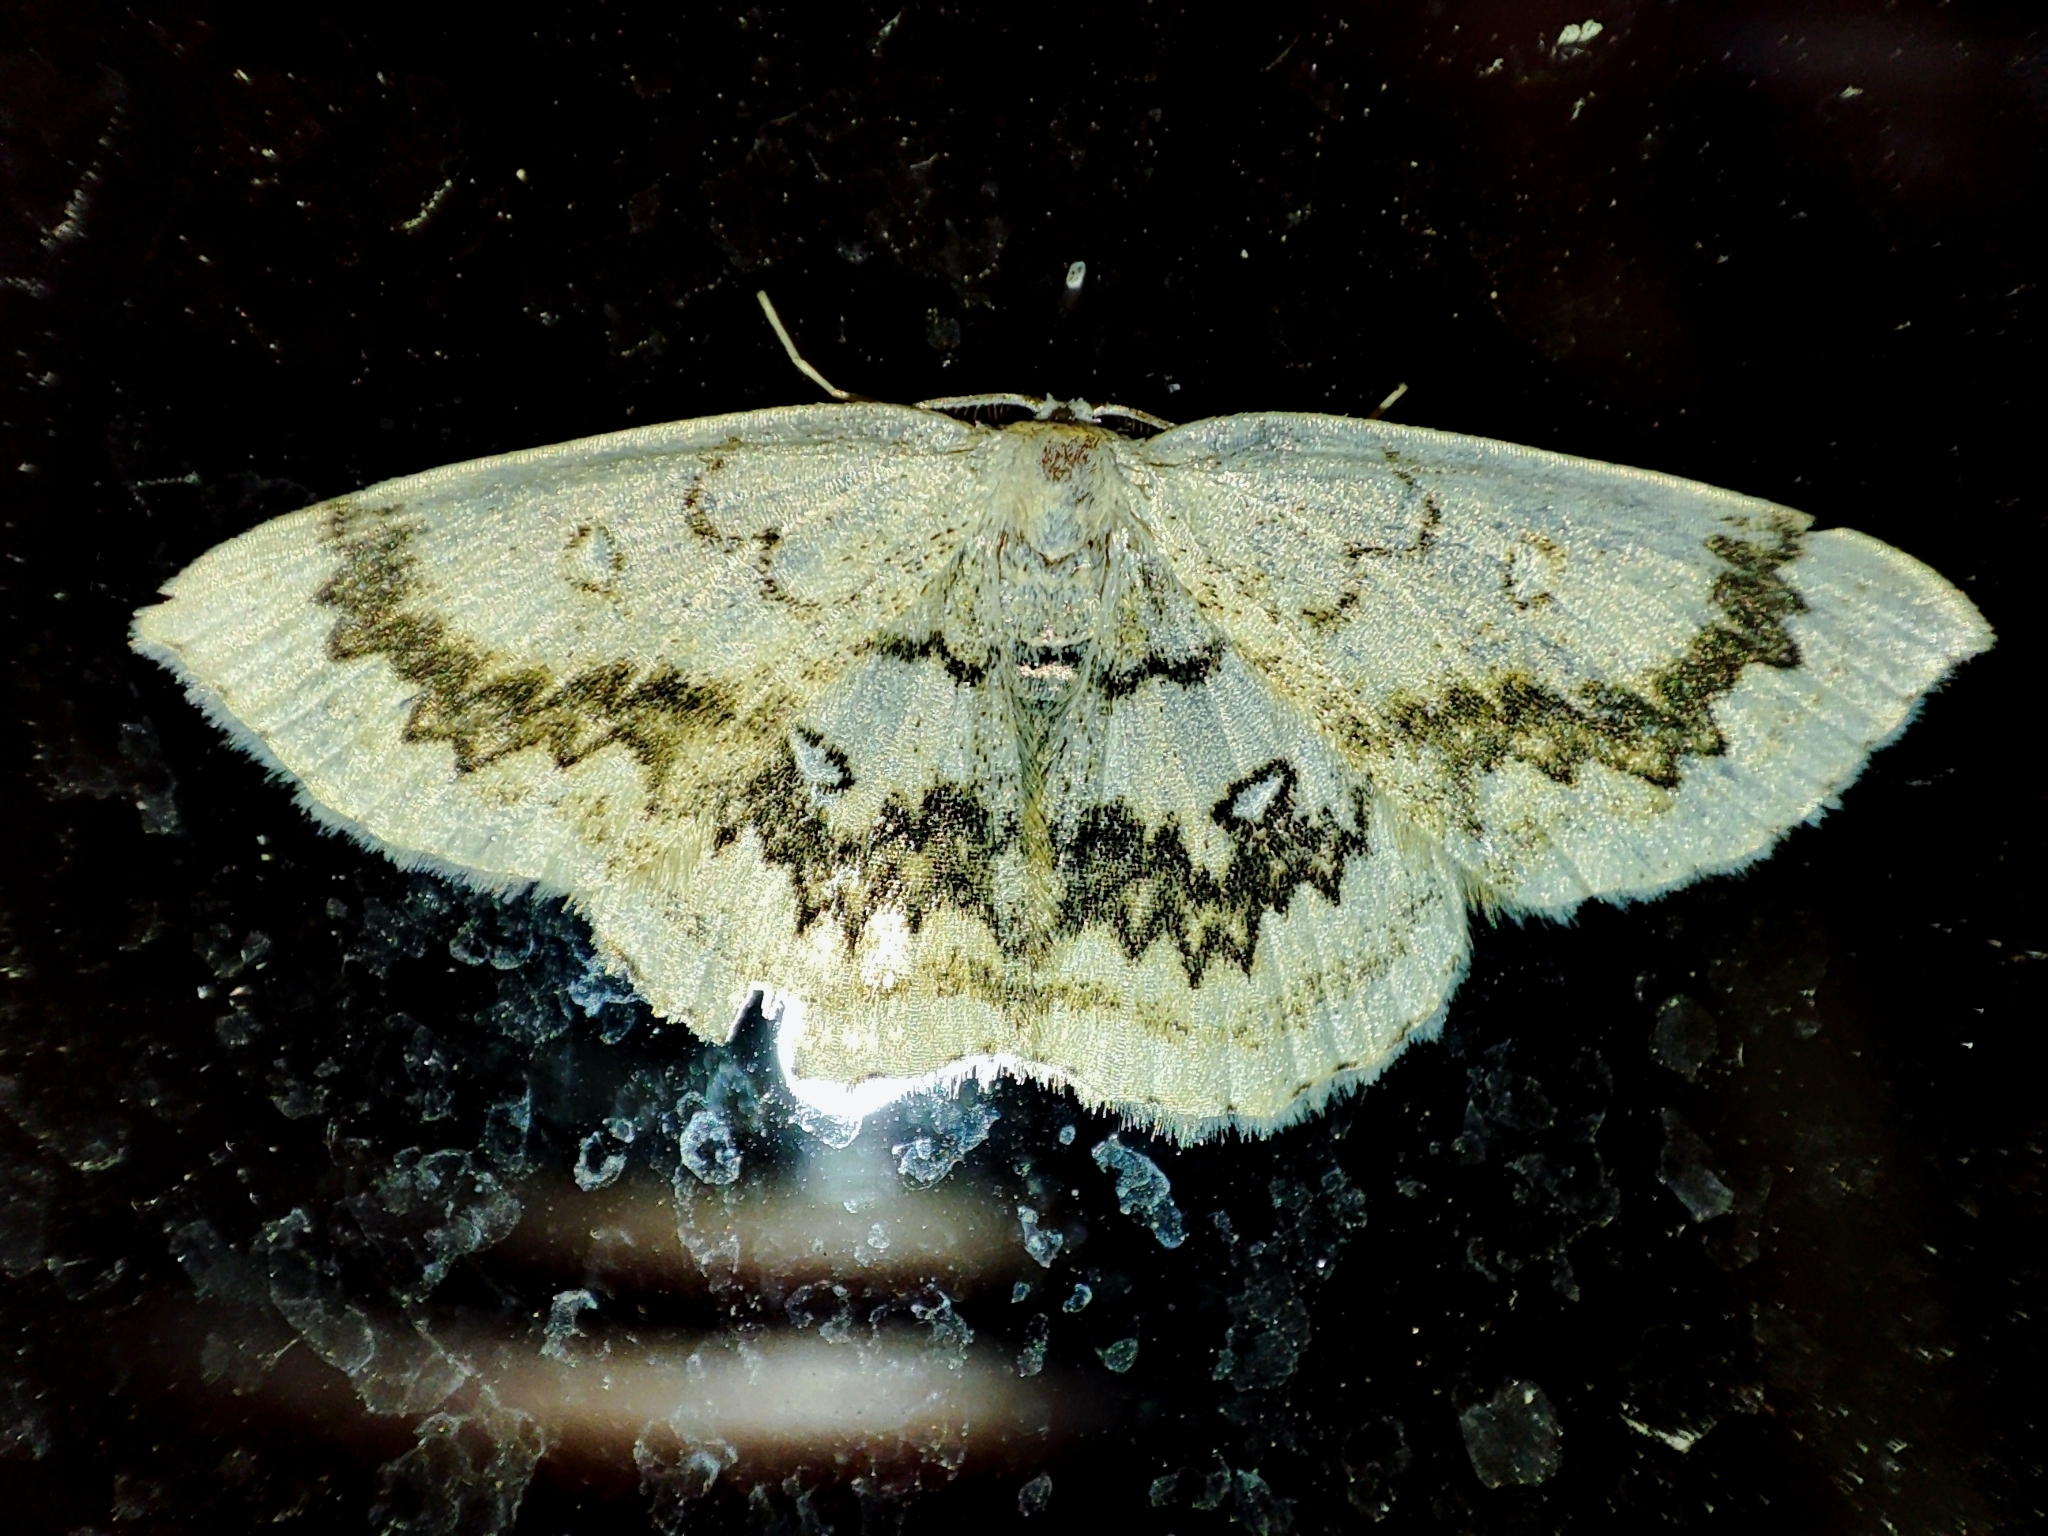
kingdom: Animalia
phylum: Arthropoda
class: Insecta
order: Lepidoptera
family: Geometridae
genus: Cyclophora
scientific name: Cyclophora annularia
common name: Mocha
